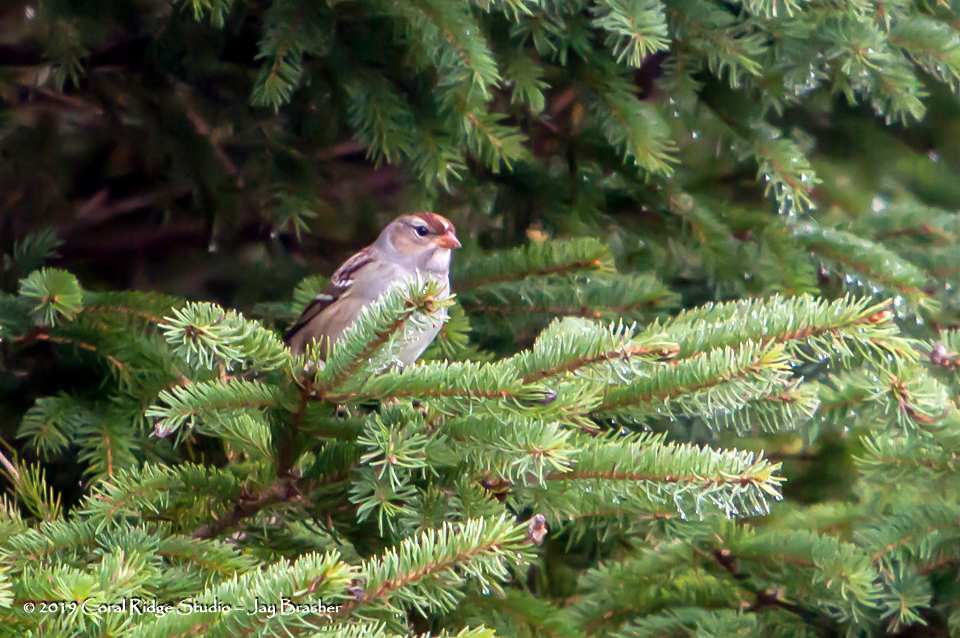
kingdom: Animalia
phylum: Chordata
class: Aves
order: Passeriformes
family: Passerellidae
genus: Zonotrichia
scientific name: Zonotrichia leucophrys
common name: White-crowned sparrow
